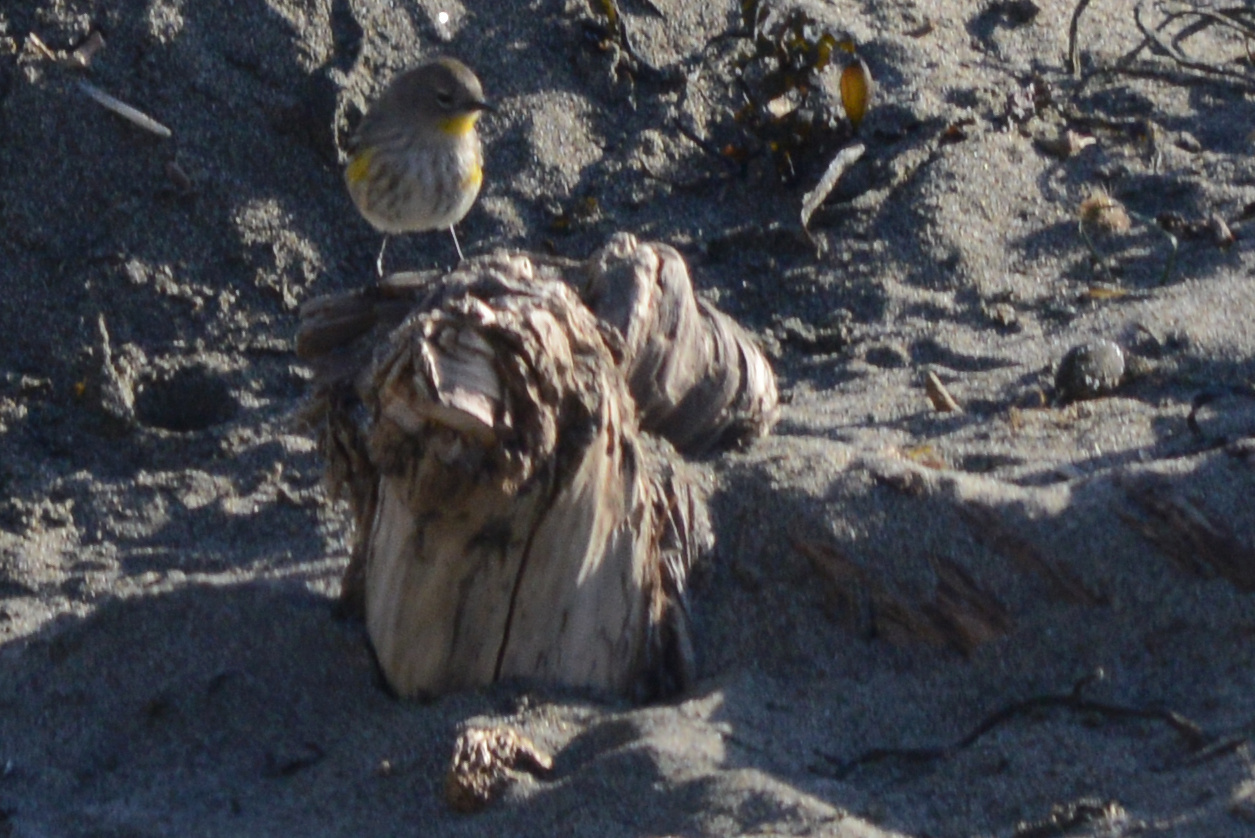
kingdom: Animalia
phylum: Chordata
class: Aves
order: Passeriformes
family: Parulidae
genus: Setophaga
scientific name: Setophaga coronata
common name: Myrtle warbler
